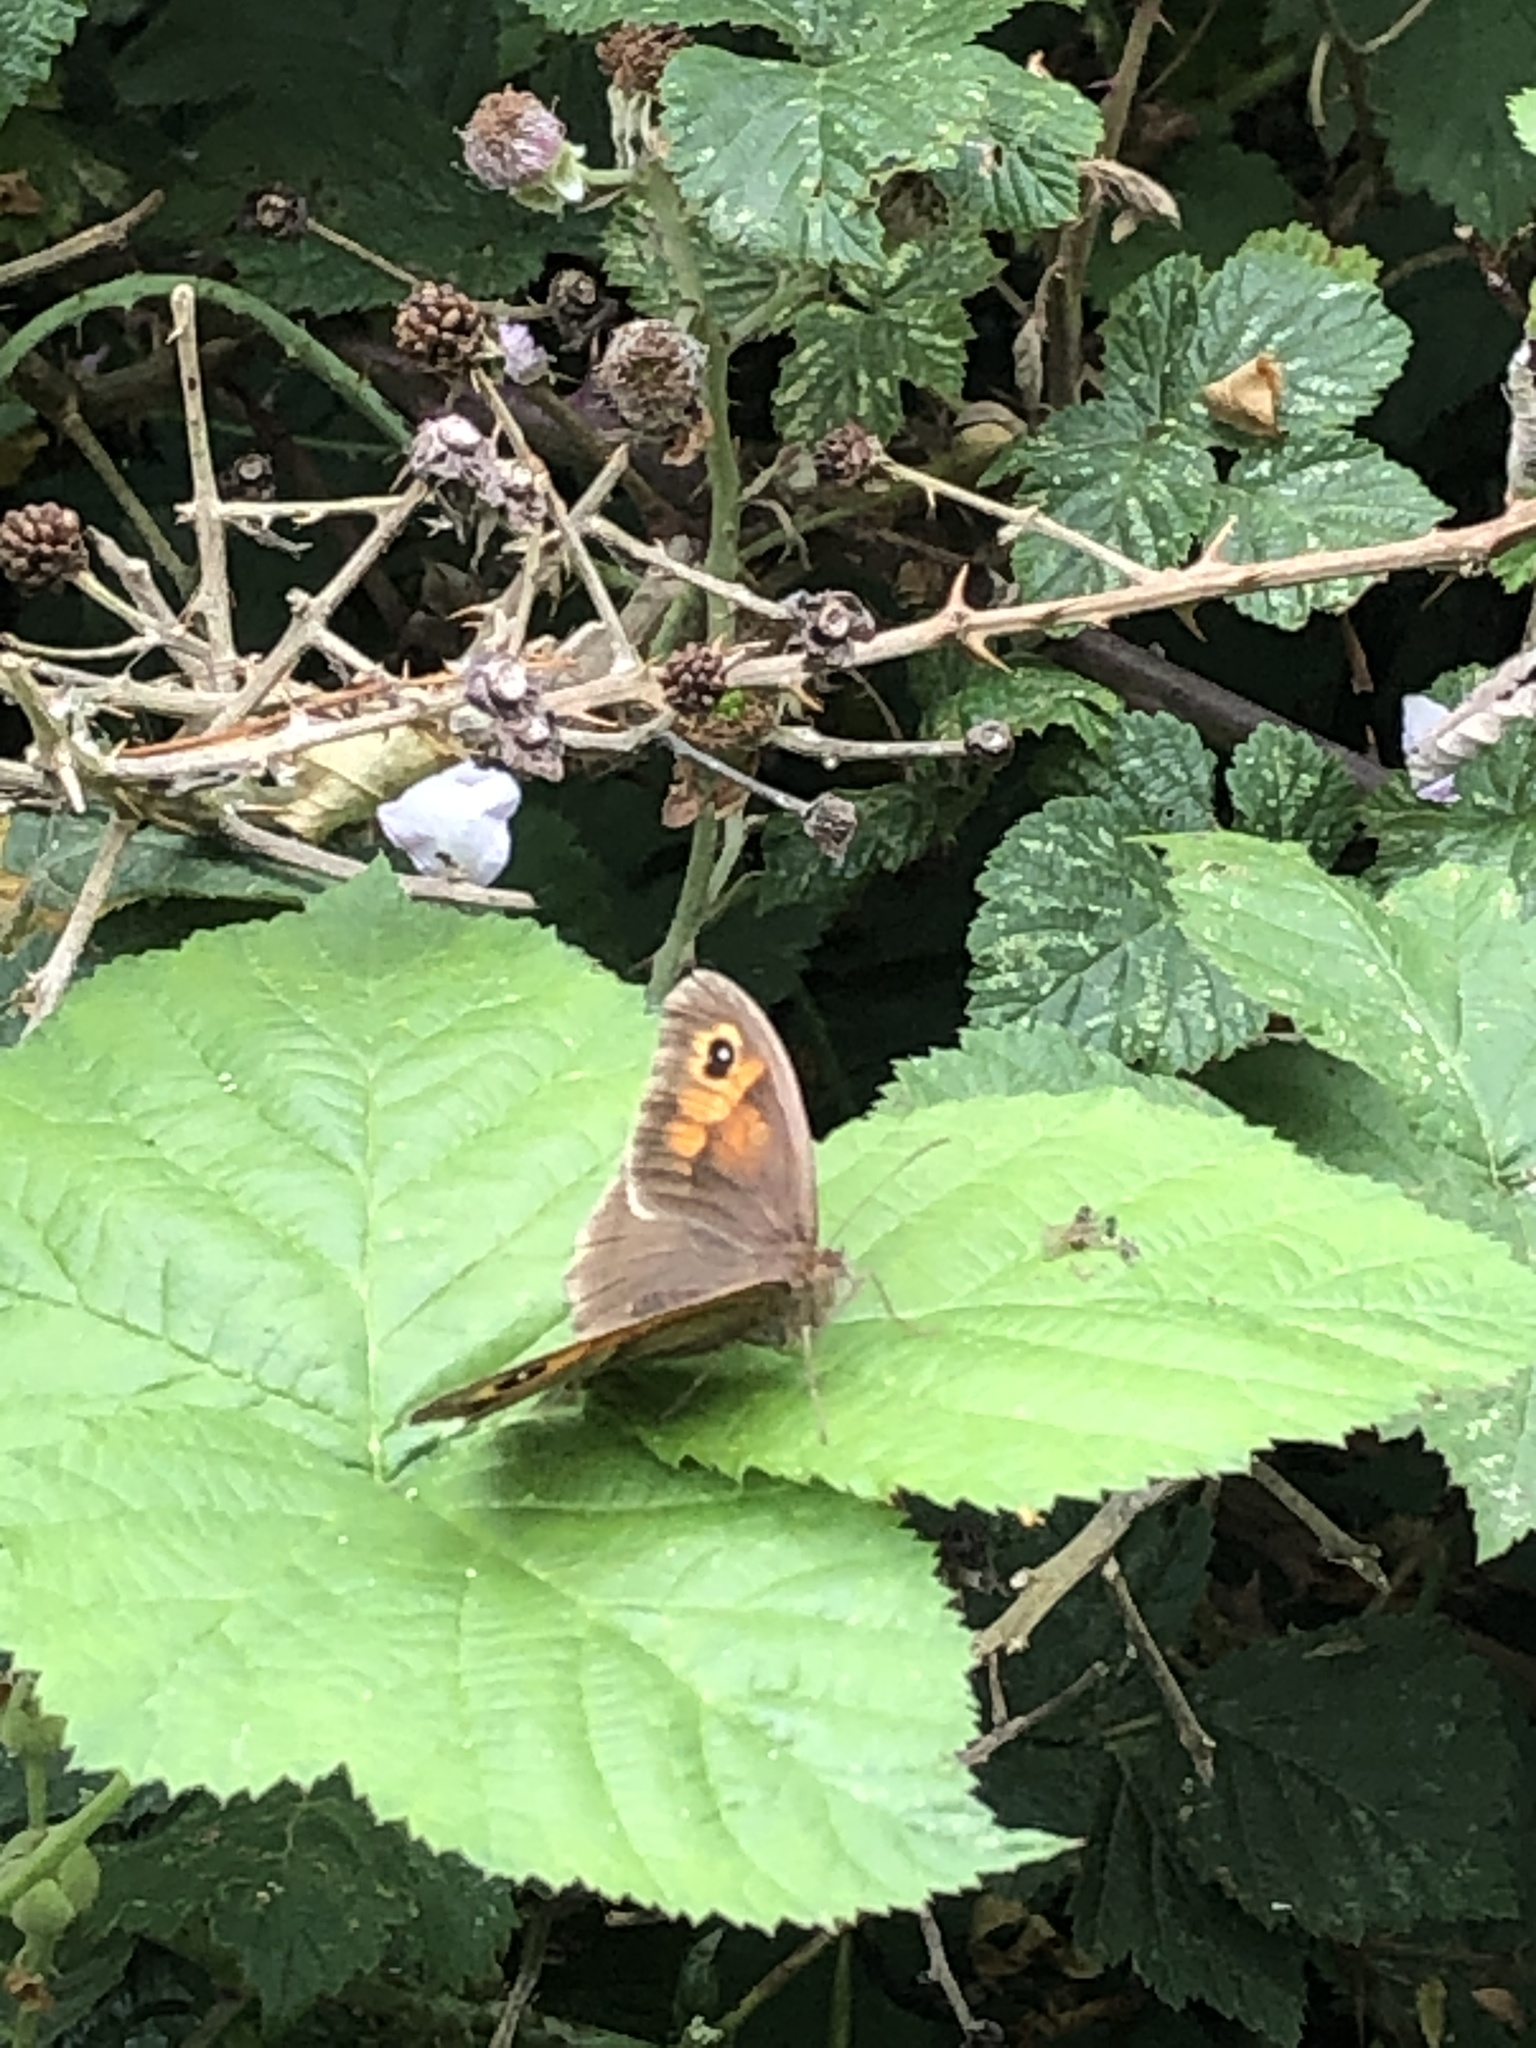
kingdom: Animalia
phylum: Arthropoda
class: Insecta
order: Lepidoptera
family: Nymphalidae
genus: Maniola
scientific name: Maniola jurtina
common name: Meadow brown
